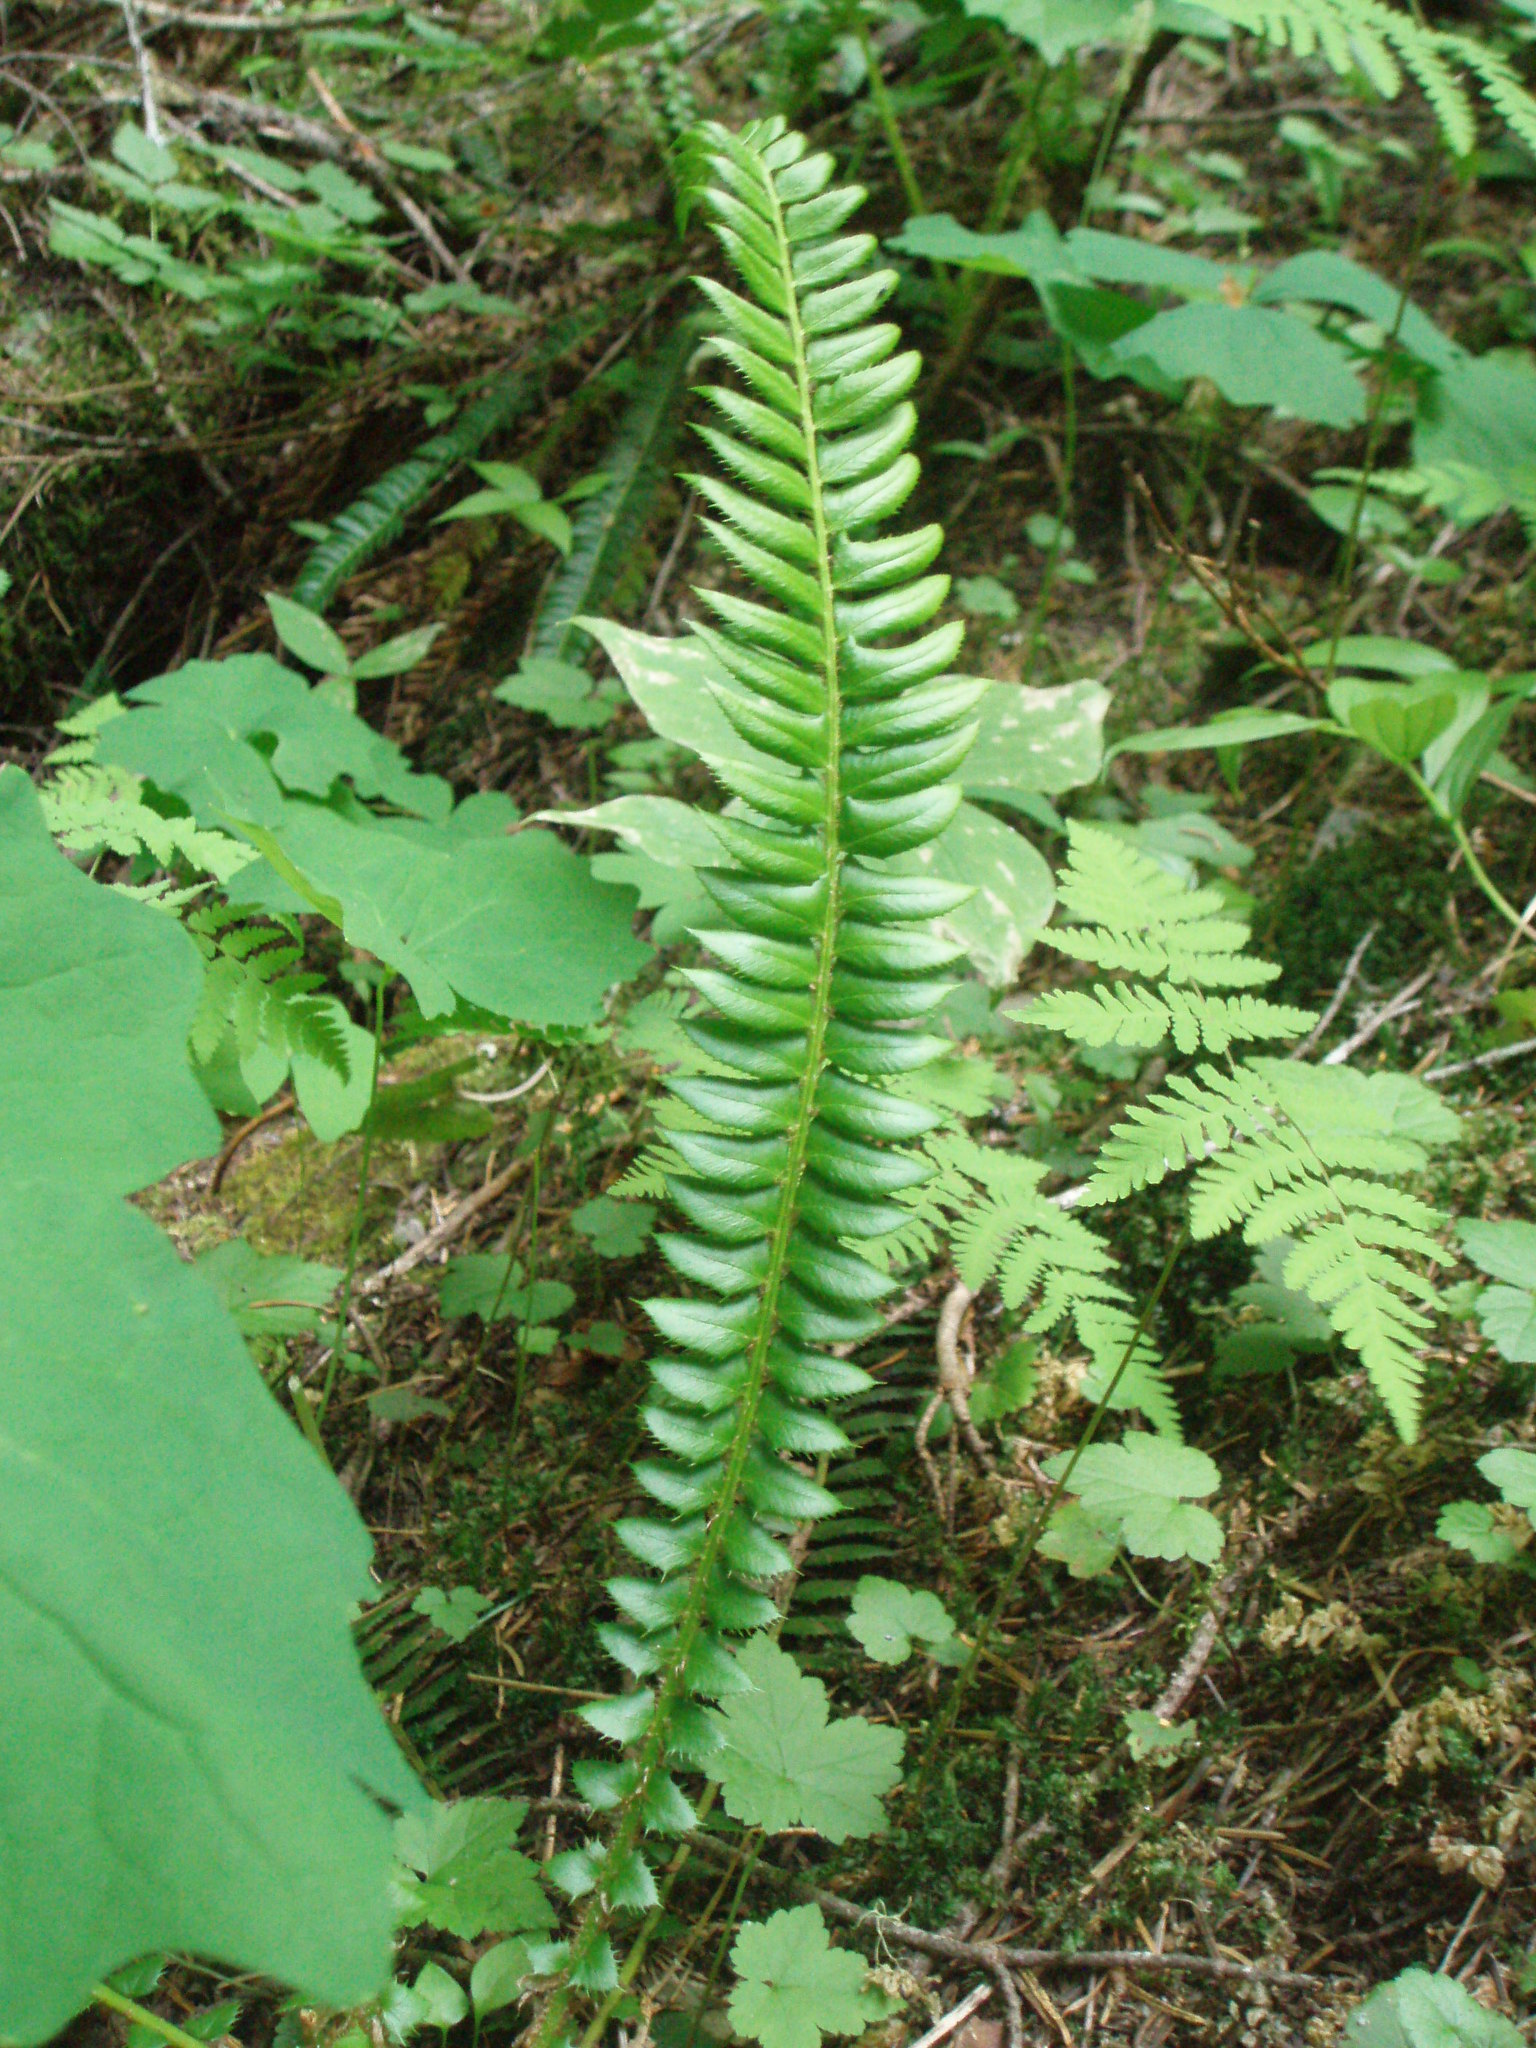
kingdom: Plantae
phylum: Tracheophyta
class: Polypodiopsida
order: Polypodiales
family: Dryopteridaceae
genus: Polystichum
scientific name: Polystichum lonchitis
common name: Holly fern
